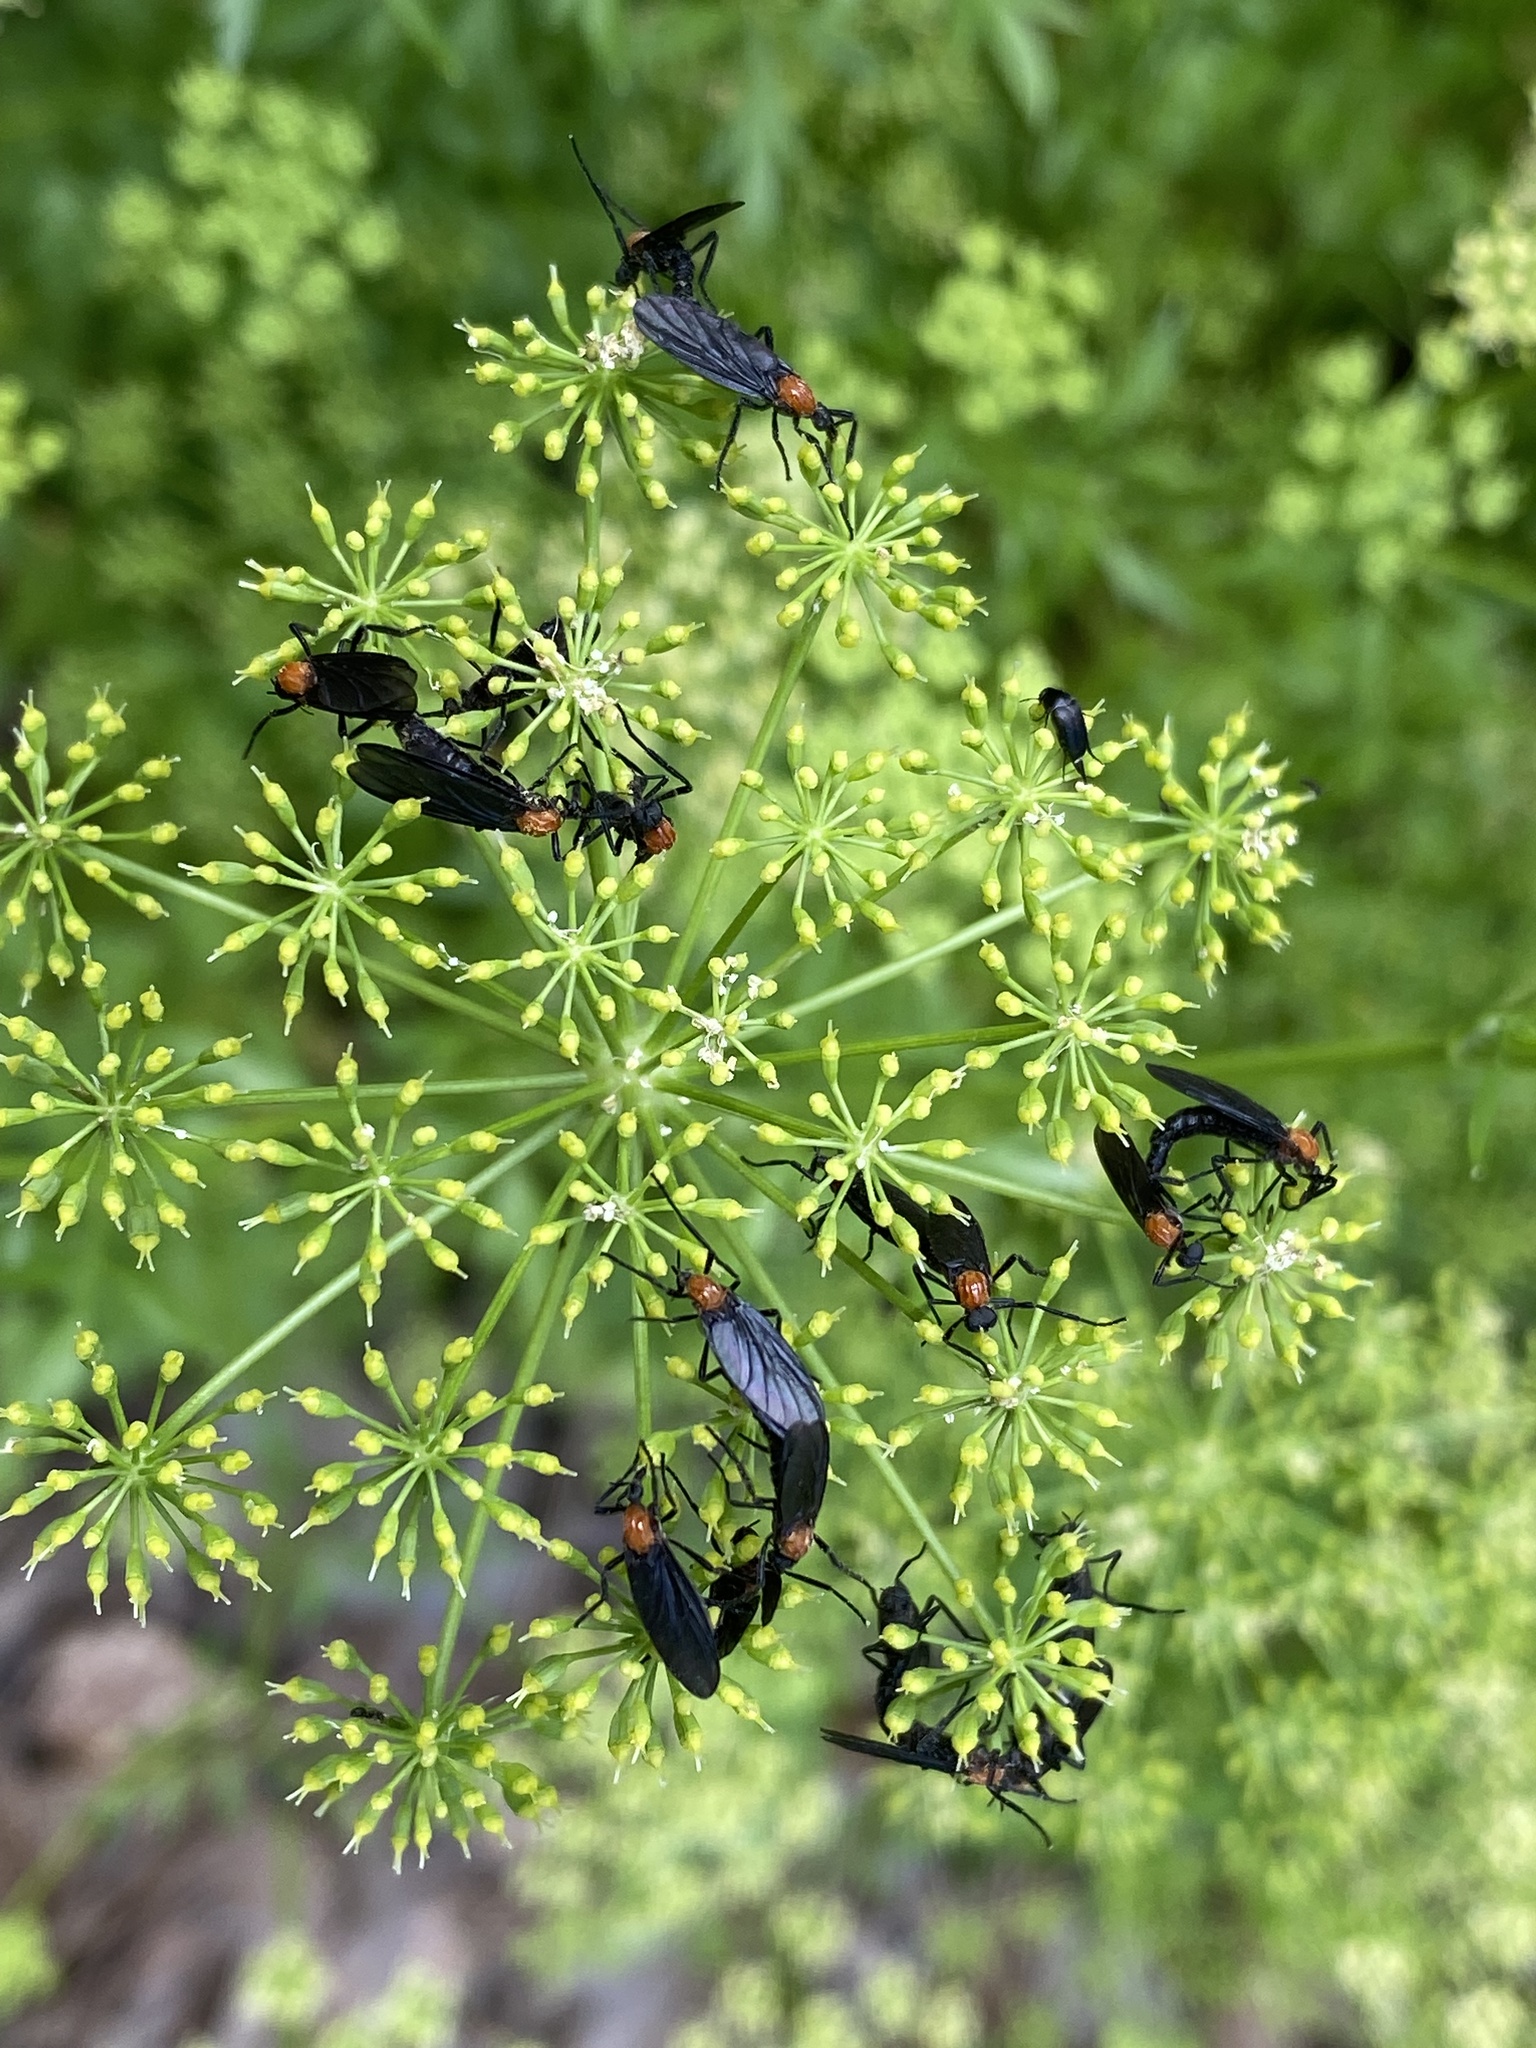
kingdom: Animalia
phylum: Arthropoda
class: Insecta
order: Diptera
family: Bibionidae
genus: Plecia
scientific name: Plecia nearctica
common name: March fly
